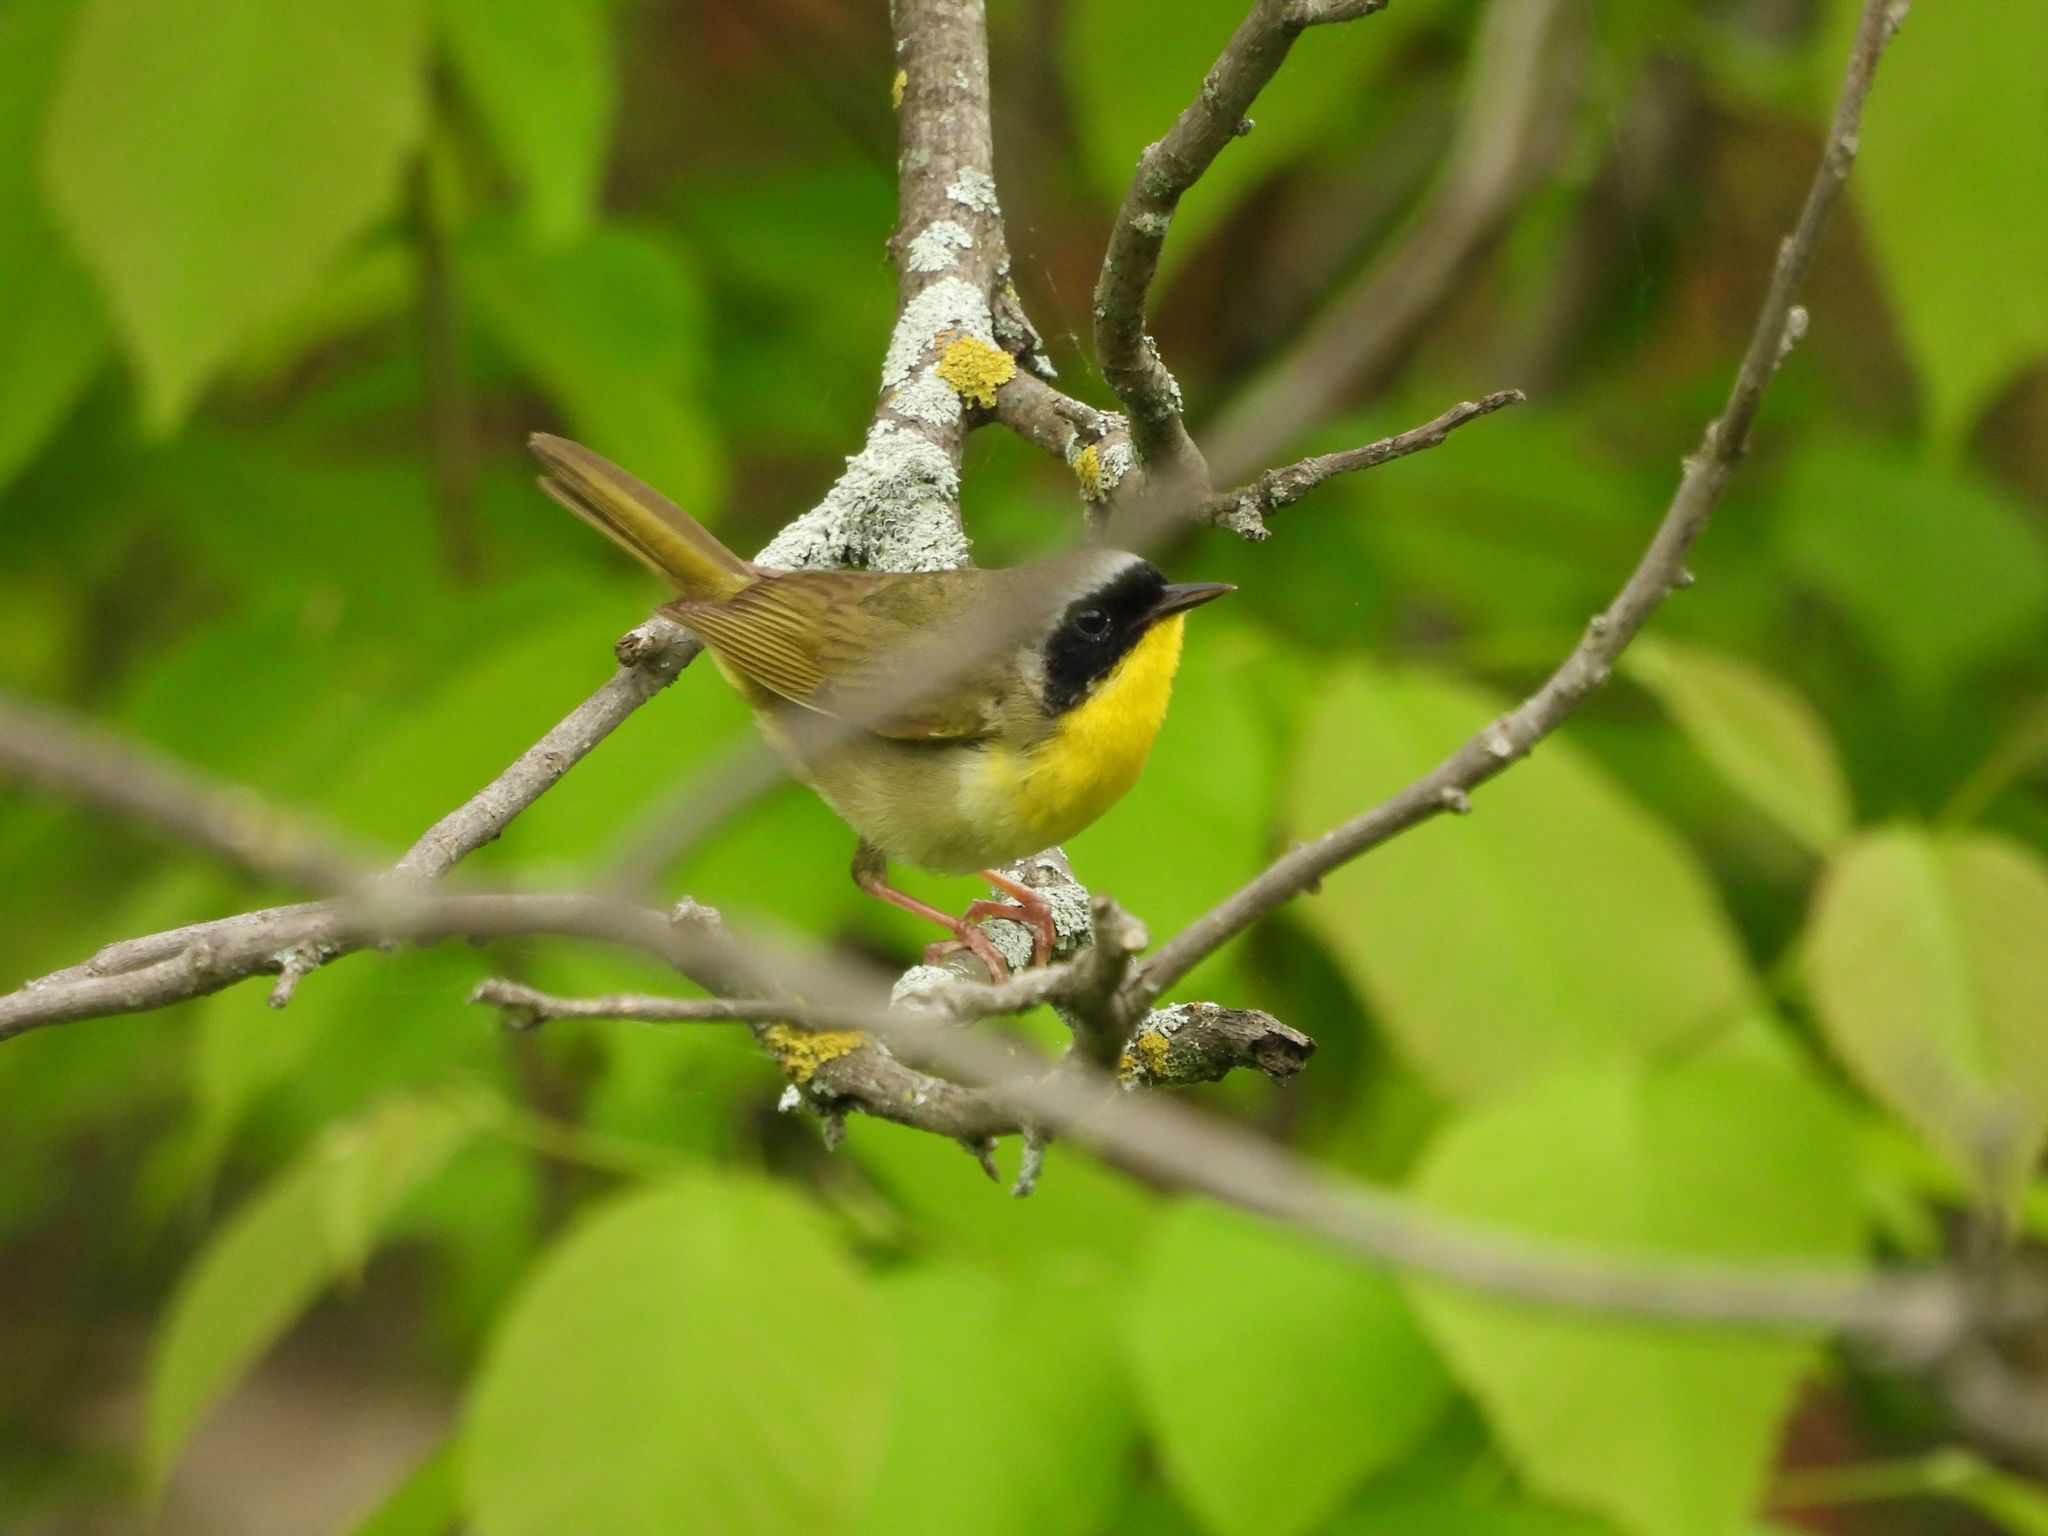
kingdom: Animalia
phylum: Chordata
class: Aves
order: Passeriformes
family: Parulidae
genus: Geothlypis
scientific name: Geothlypis trichas
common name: Common yellowthroat
